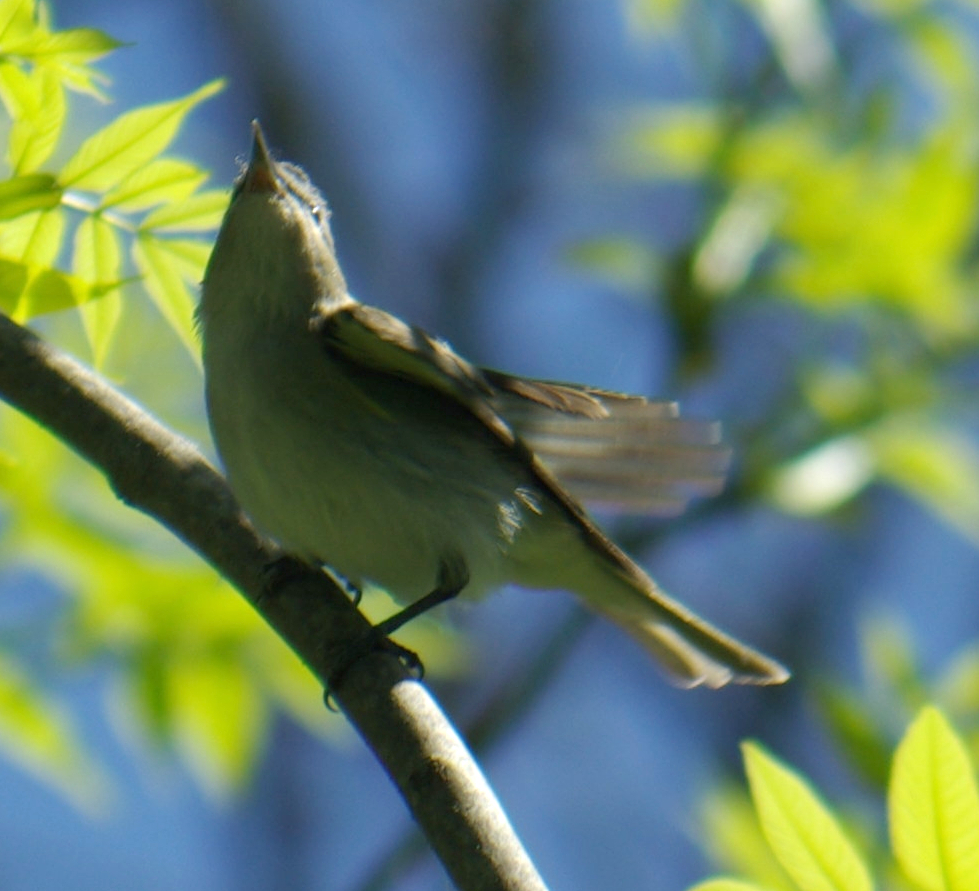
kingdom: Animalia
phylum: Chordata
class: Aves
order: Passeriformes
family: Vireonidae
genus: Vireo
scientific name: Vireo olivaceus
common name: Red-eyed vireo
